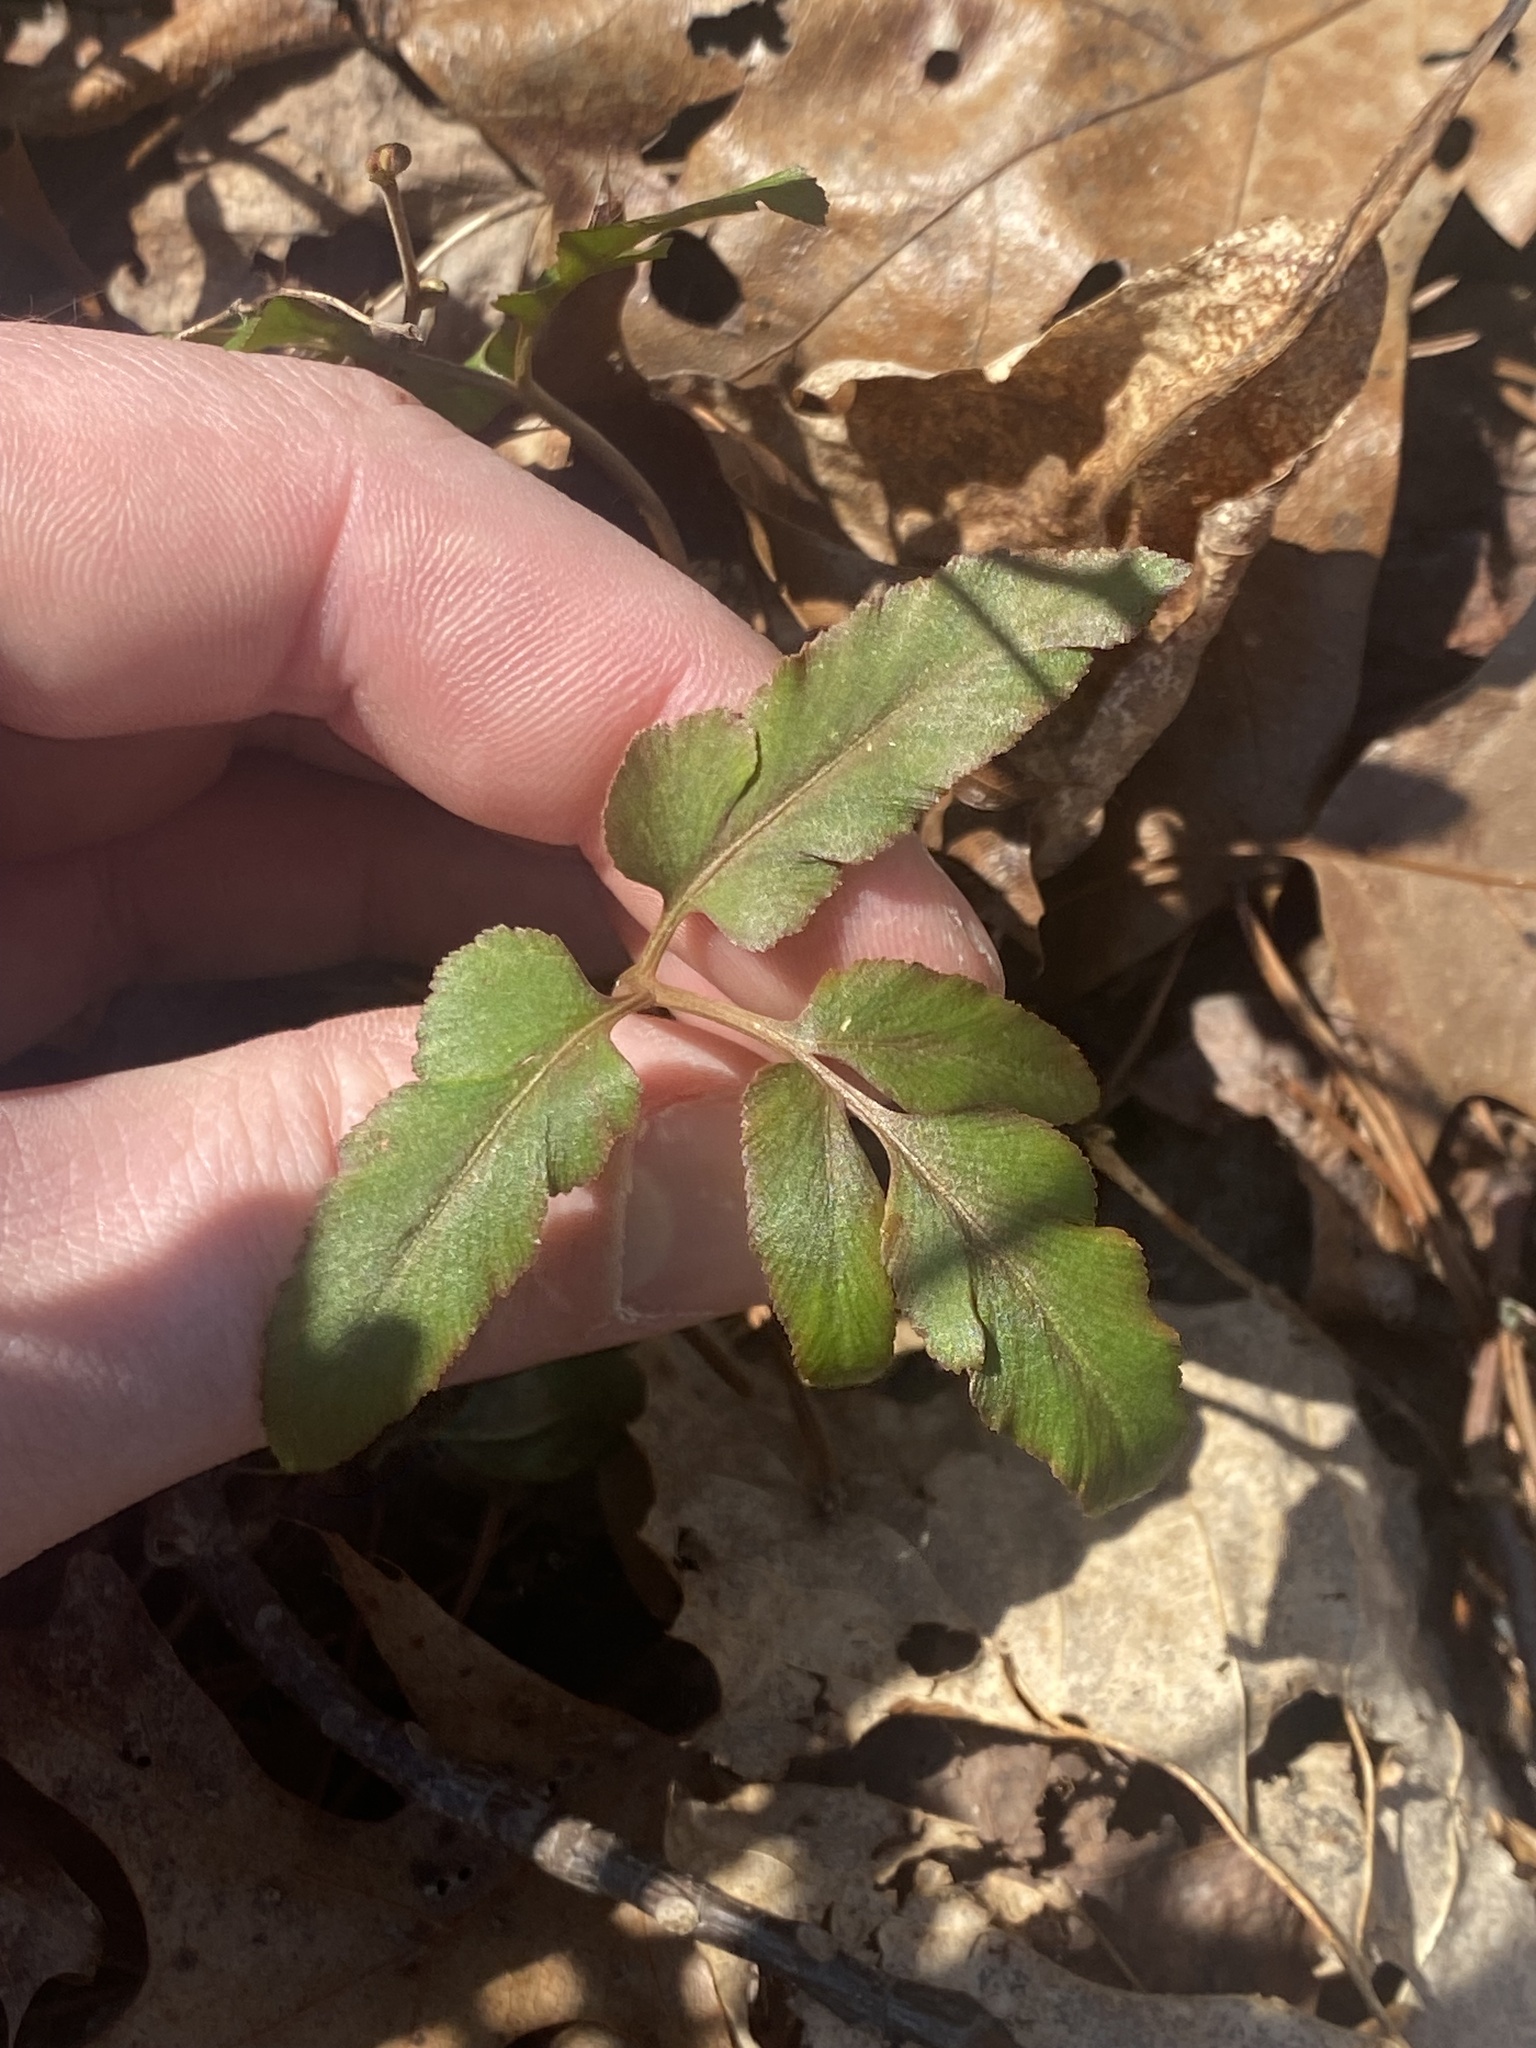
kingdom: Plantae
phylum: Tracheophyta
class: Polypodiopsida
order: Ophioglossales
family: Ophioglossaceae
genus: Sceptridium
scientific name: Sceptridium dissectum
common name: Cut-leaved grapefern
